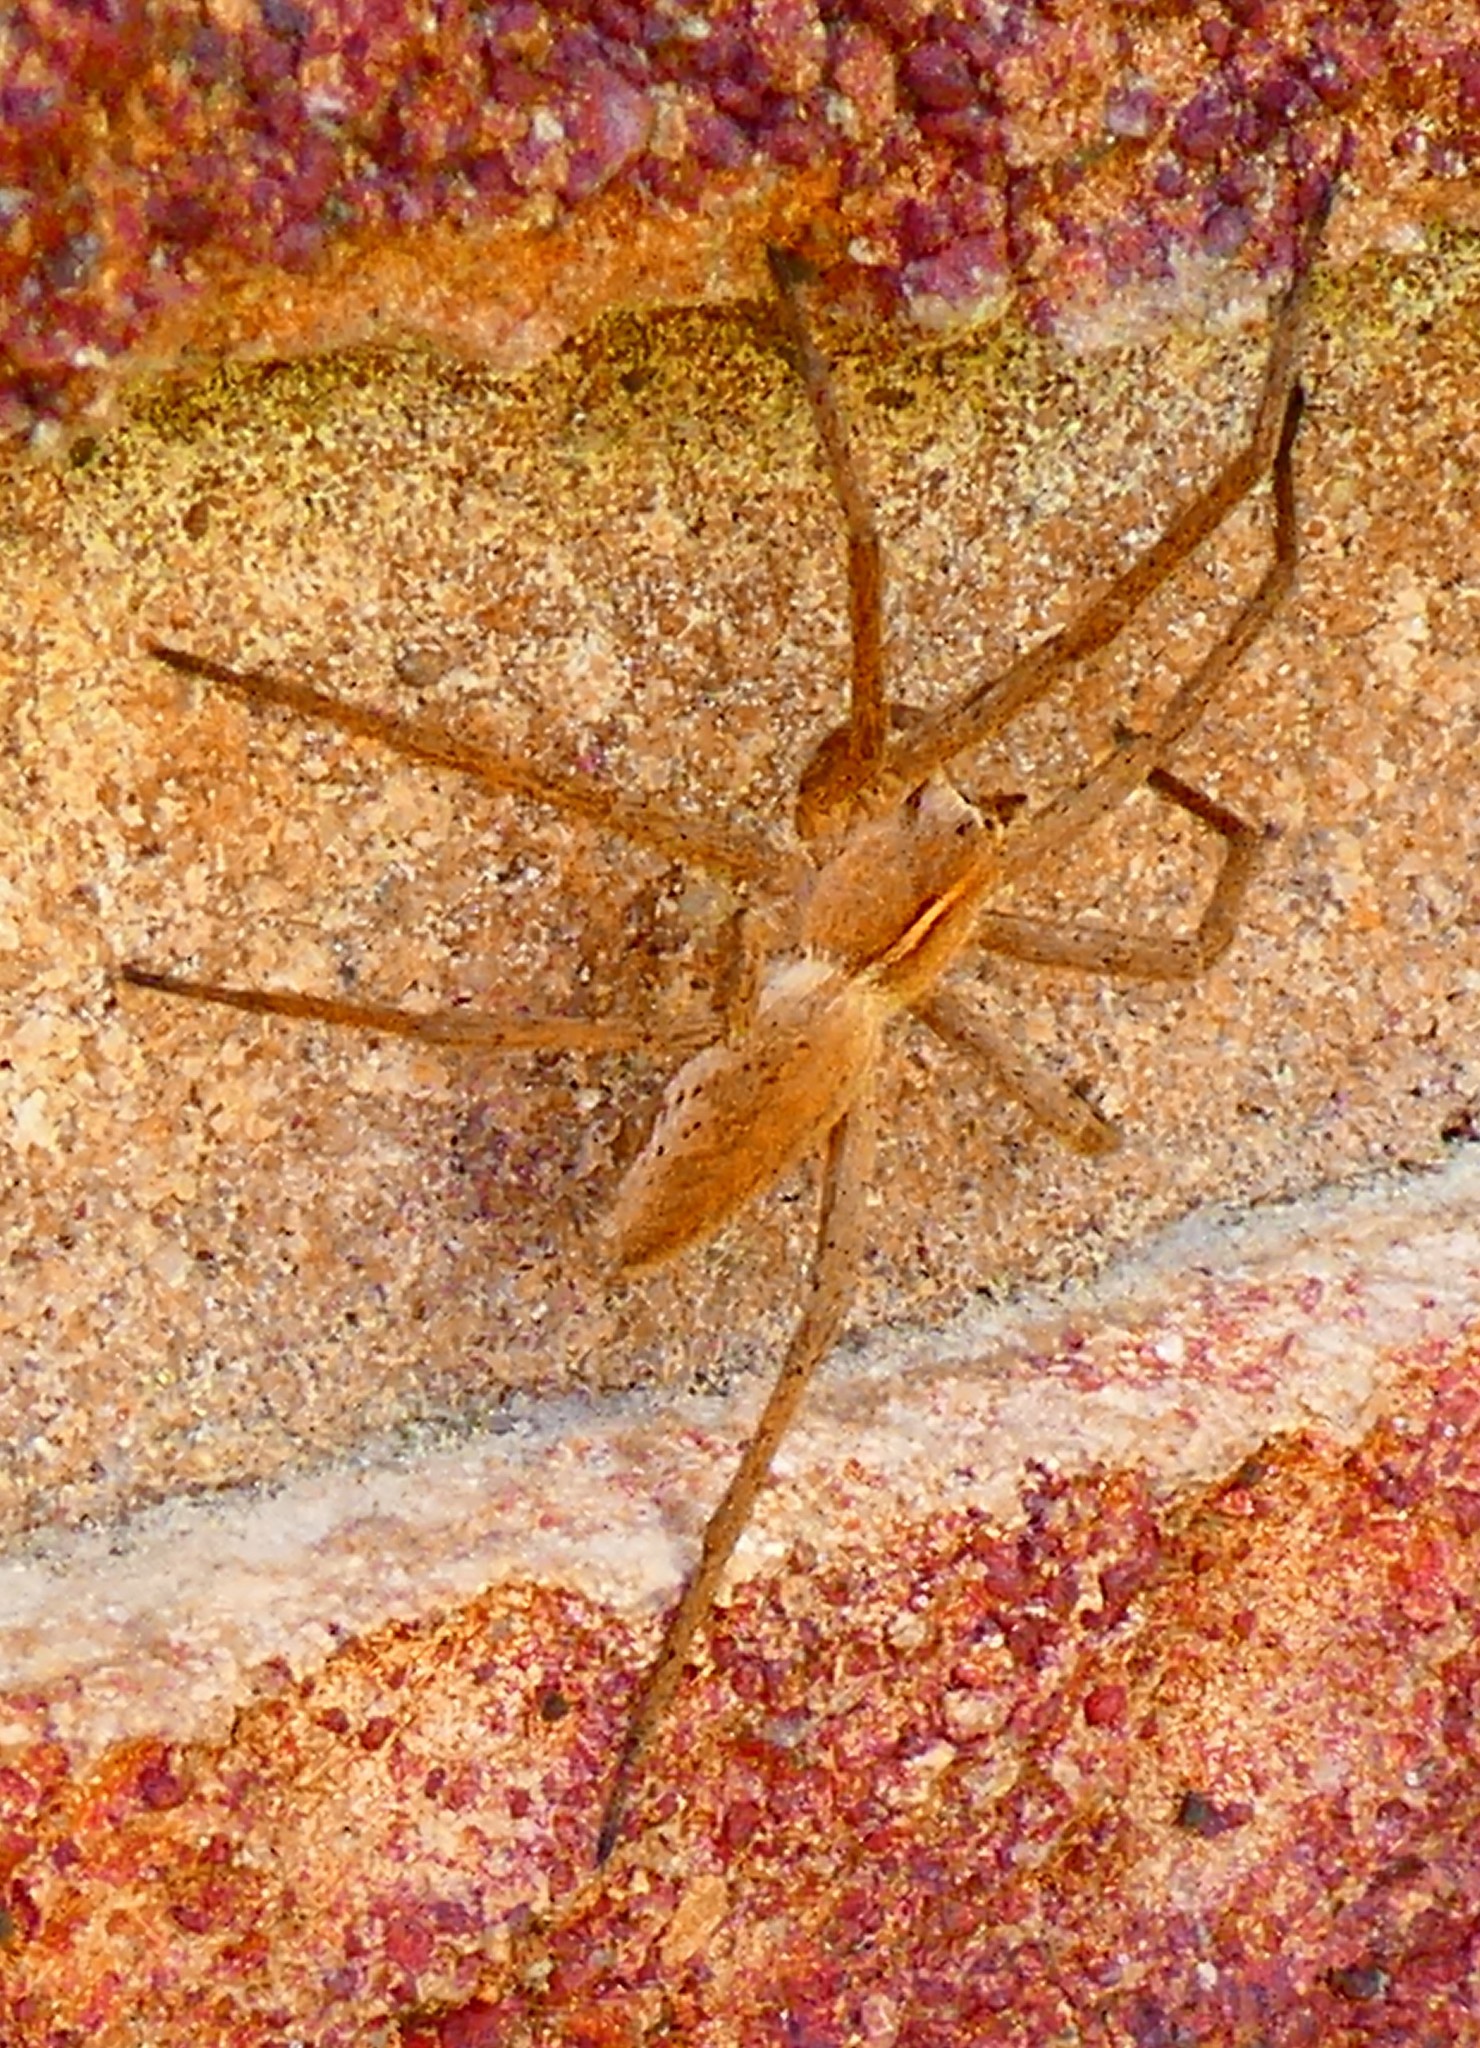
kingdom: Animalia
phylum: Arthropoda
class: Arachnida
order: Araneae
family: Pisauridae
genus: Pisaura
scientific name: Pisaura mirabilis
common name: Tent spider
